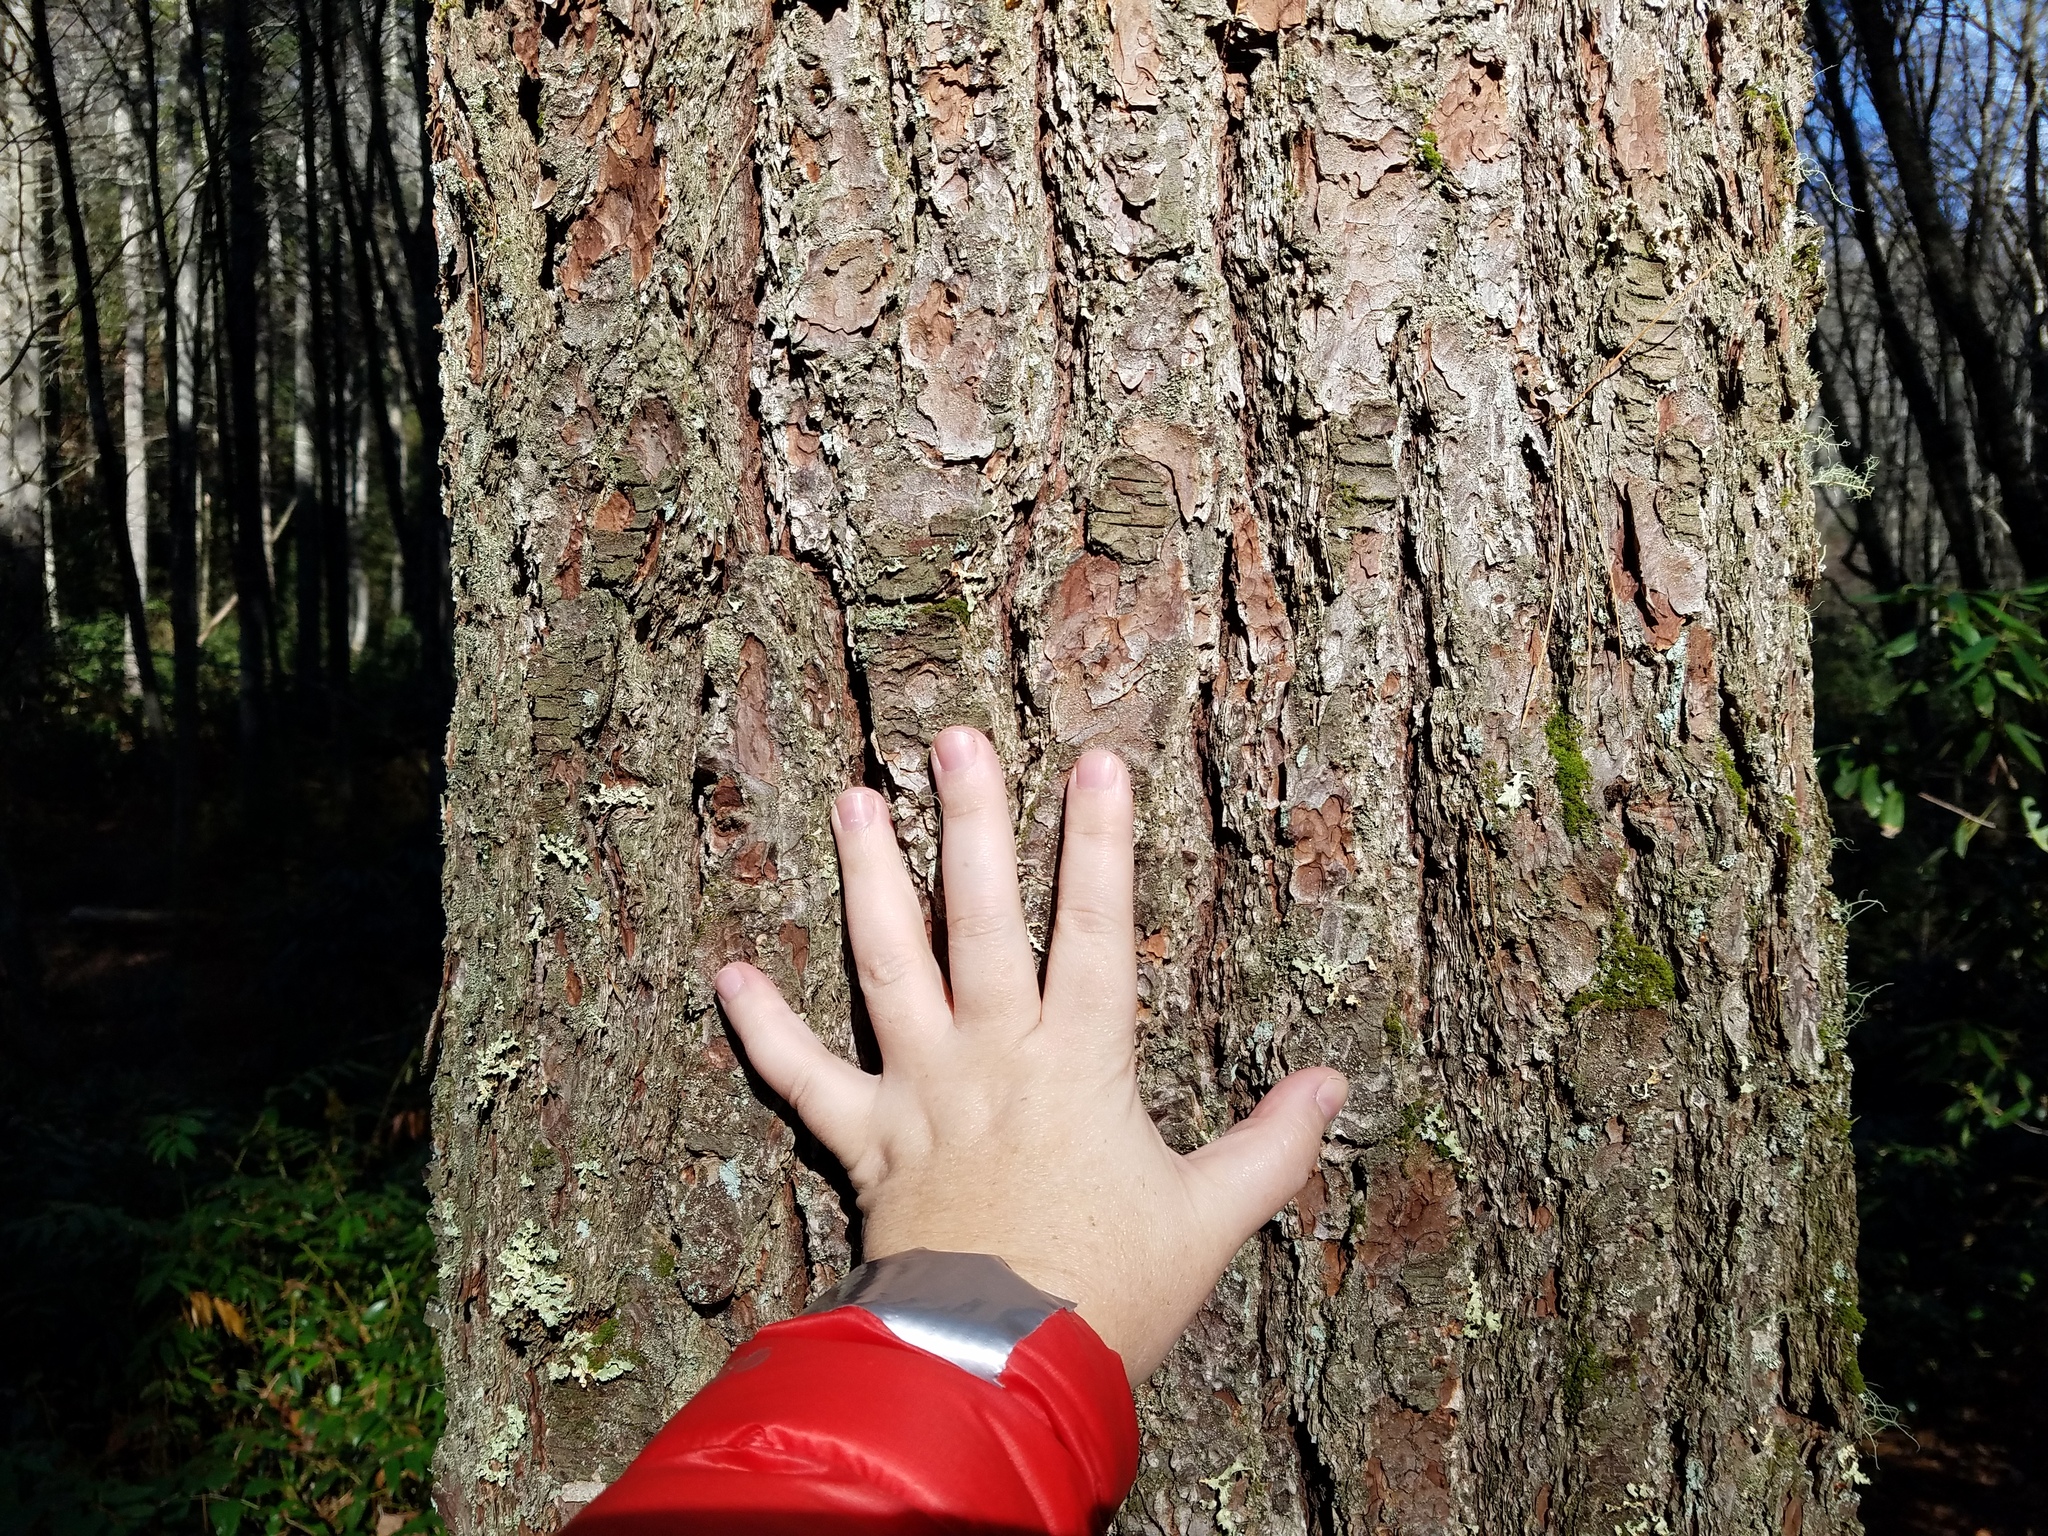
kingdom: Plantae
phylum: Tracheophyta
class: Pinopsida
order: Pinales
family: Pinaceae
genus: Pinus
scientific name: Pinus strobus
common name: Weymouth pine
